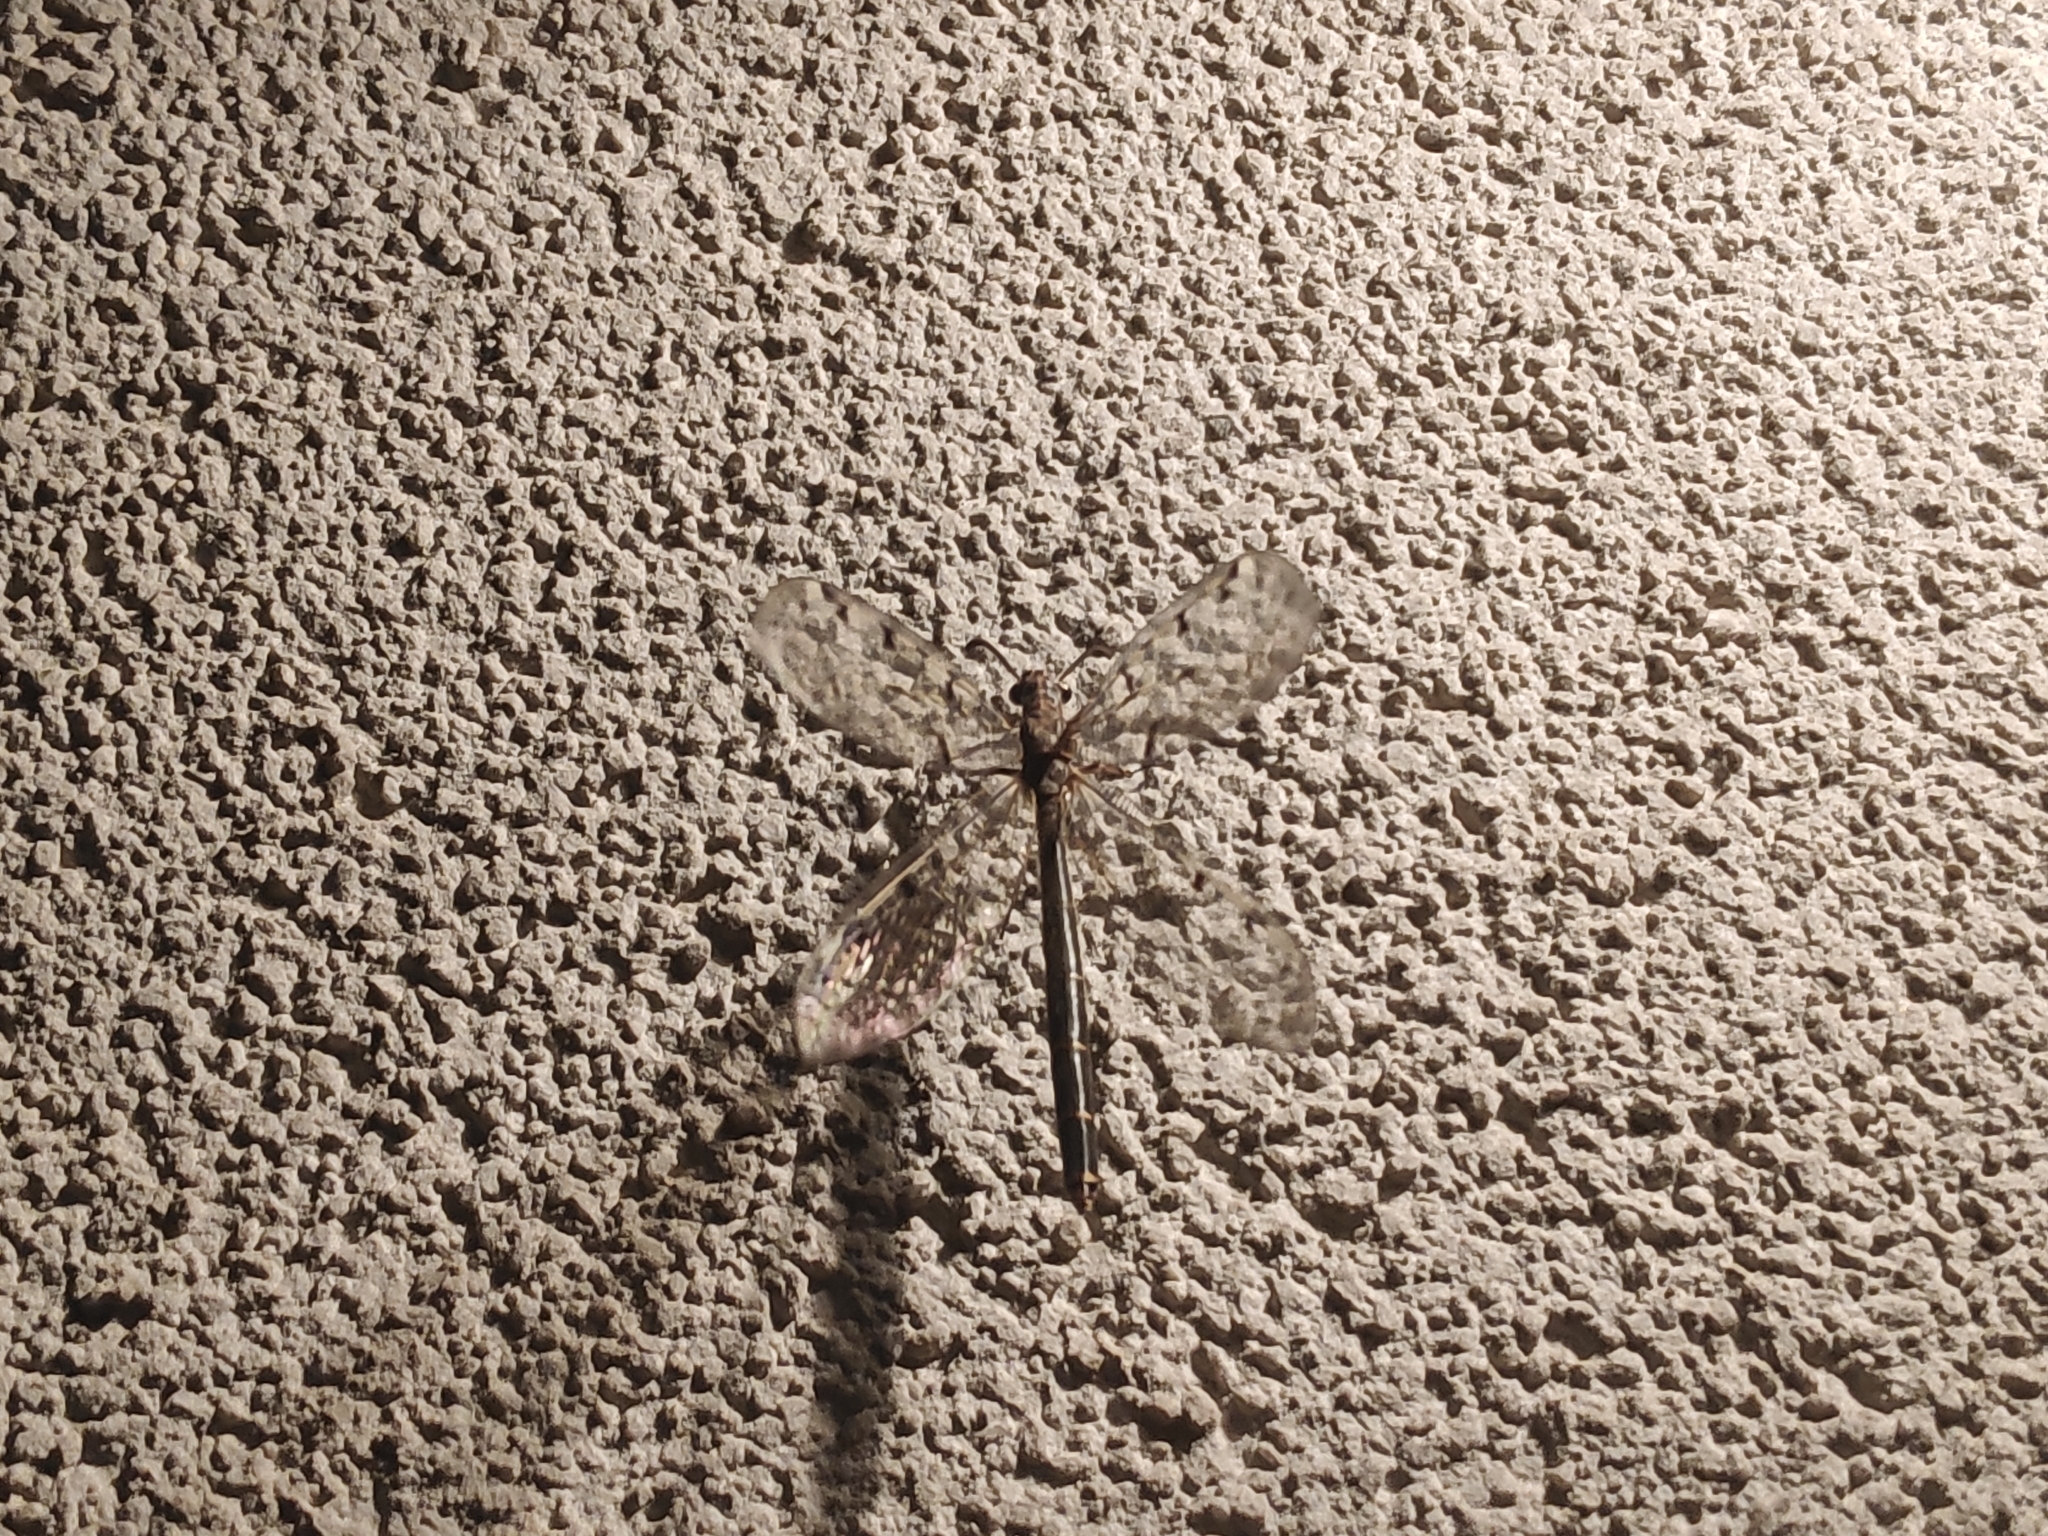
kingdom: Animalia
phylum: Arthropoda
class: Insecta
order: Neuroptera
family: Myrmeleontidae
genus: Euroleon
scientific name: Euroleon nostras
